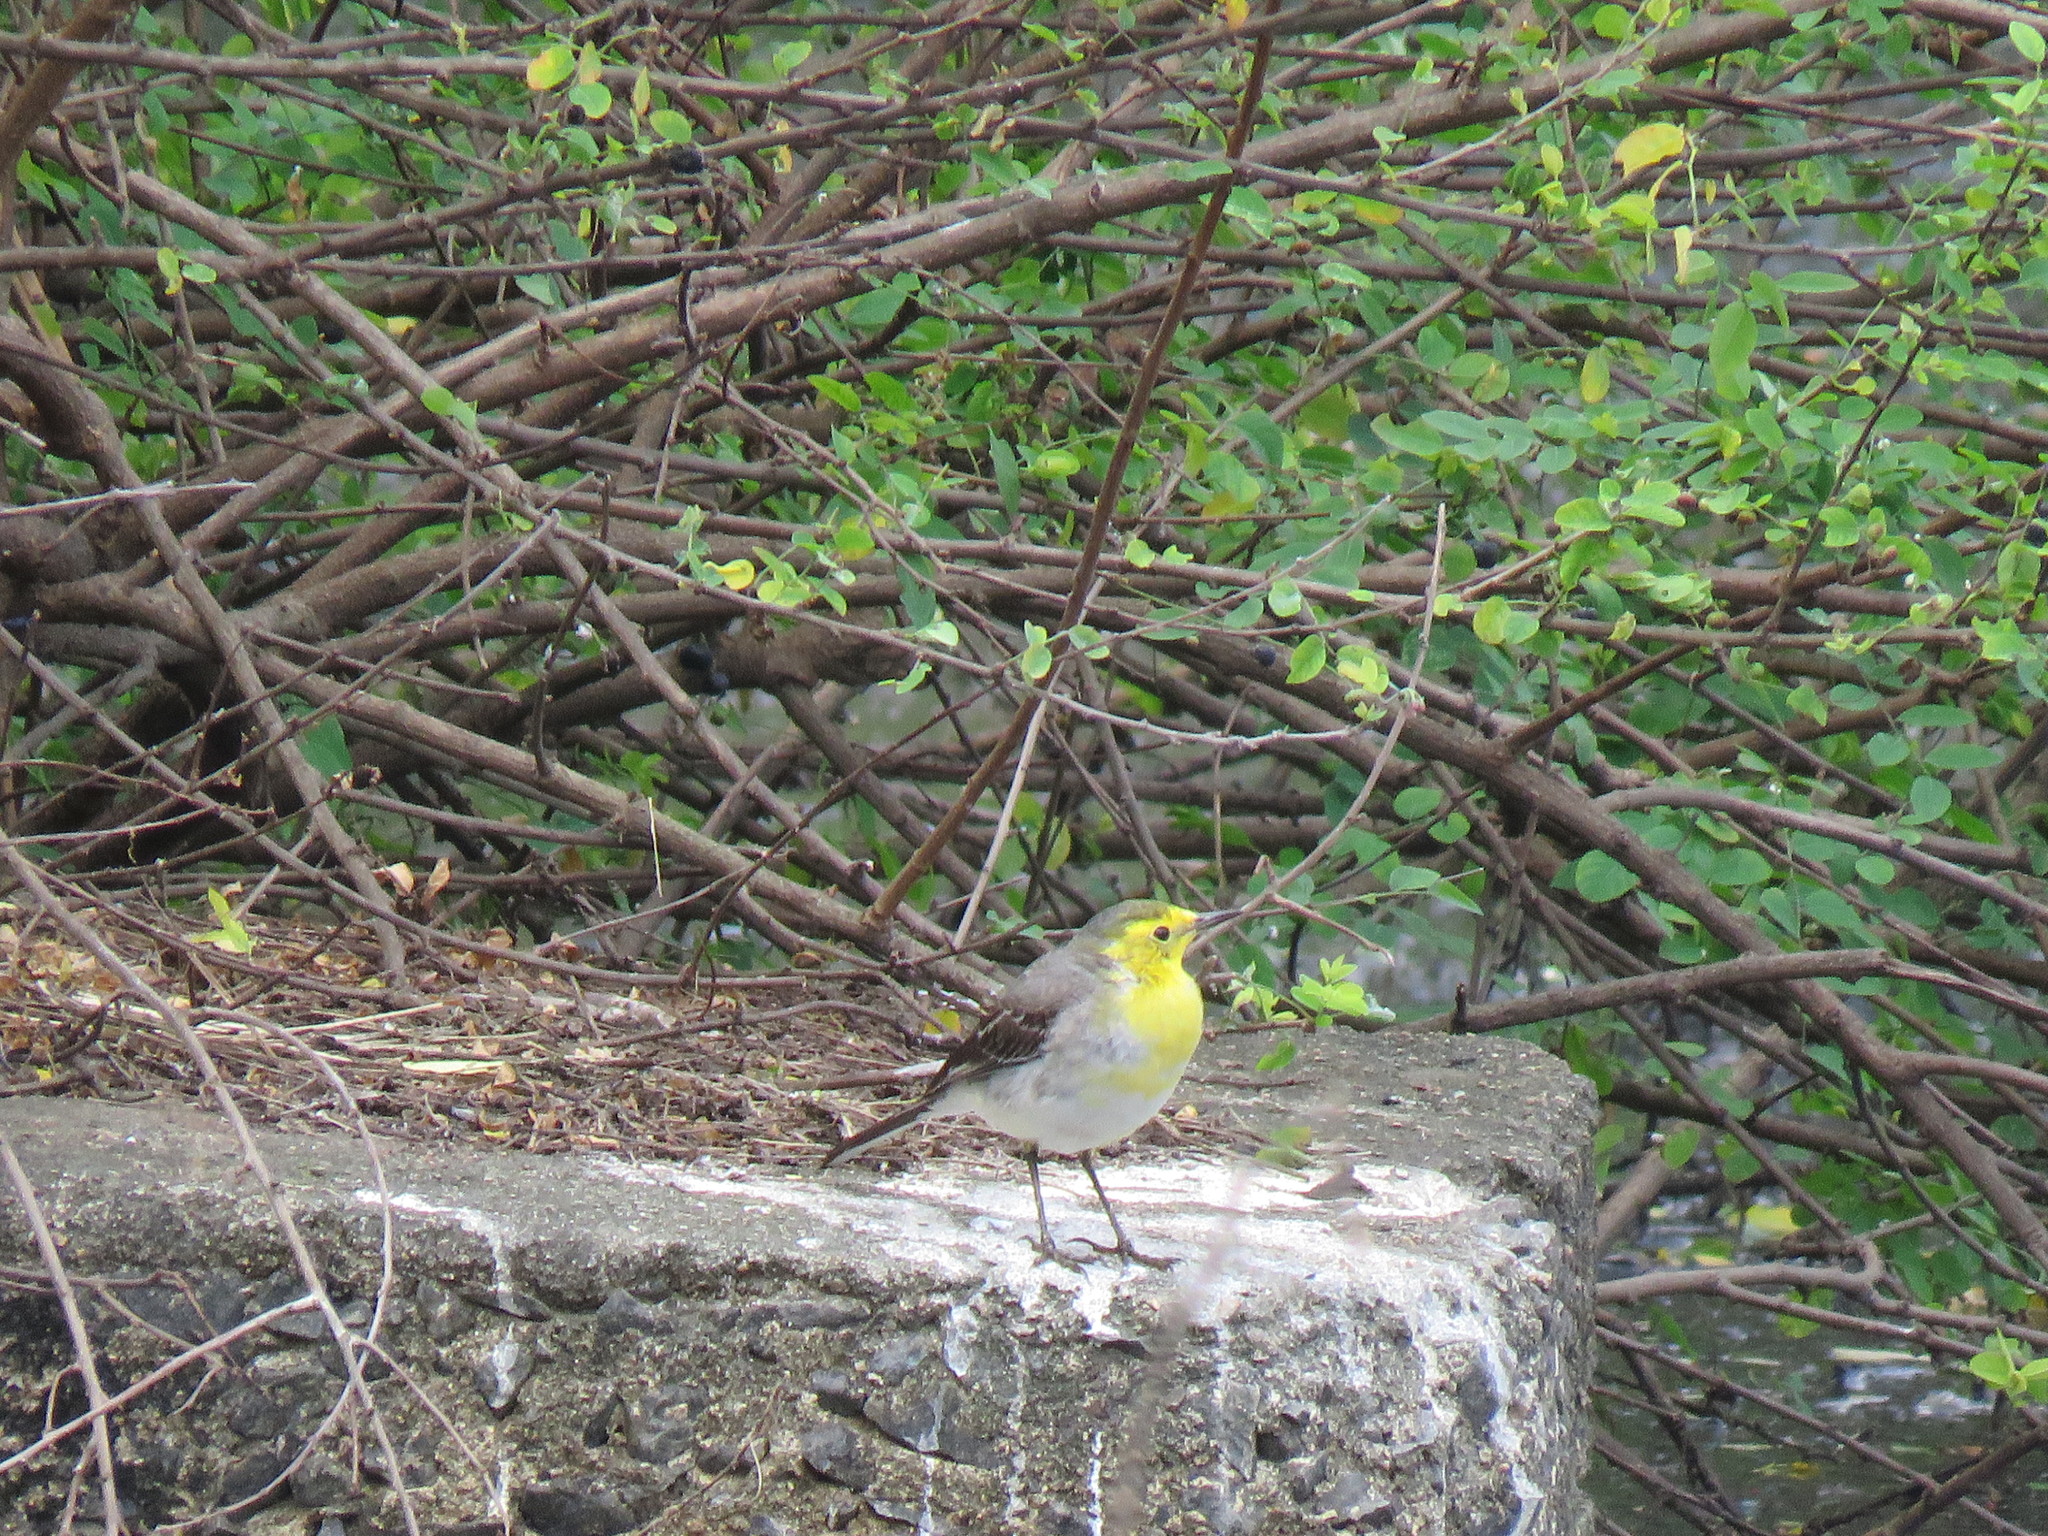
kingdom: Animalia
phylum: Chordata
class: Aves
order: Passeriformes
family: Motacillidae
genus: Motacilla
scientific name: Motacilla citreola
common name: Citrine wagtail
